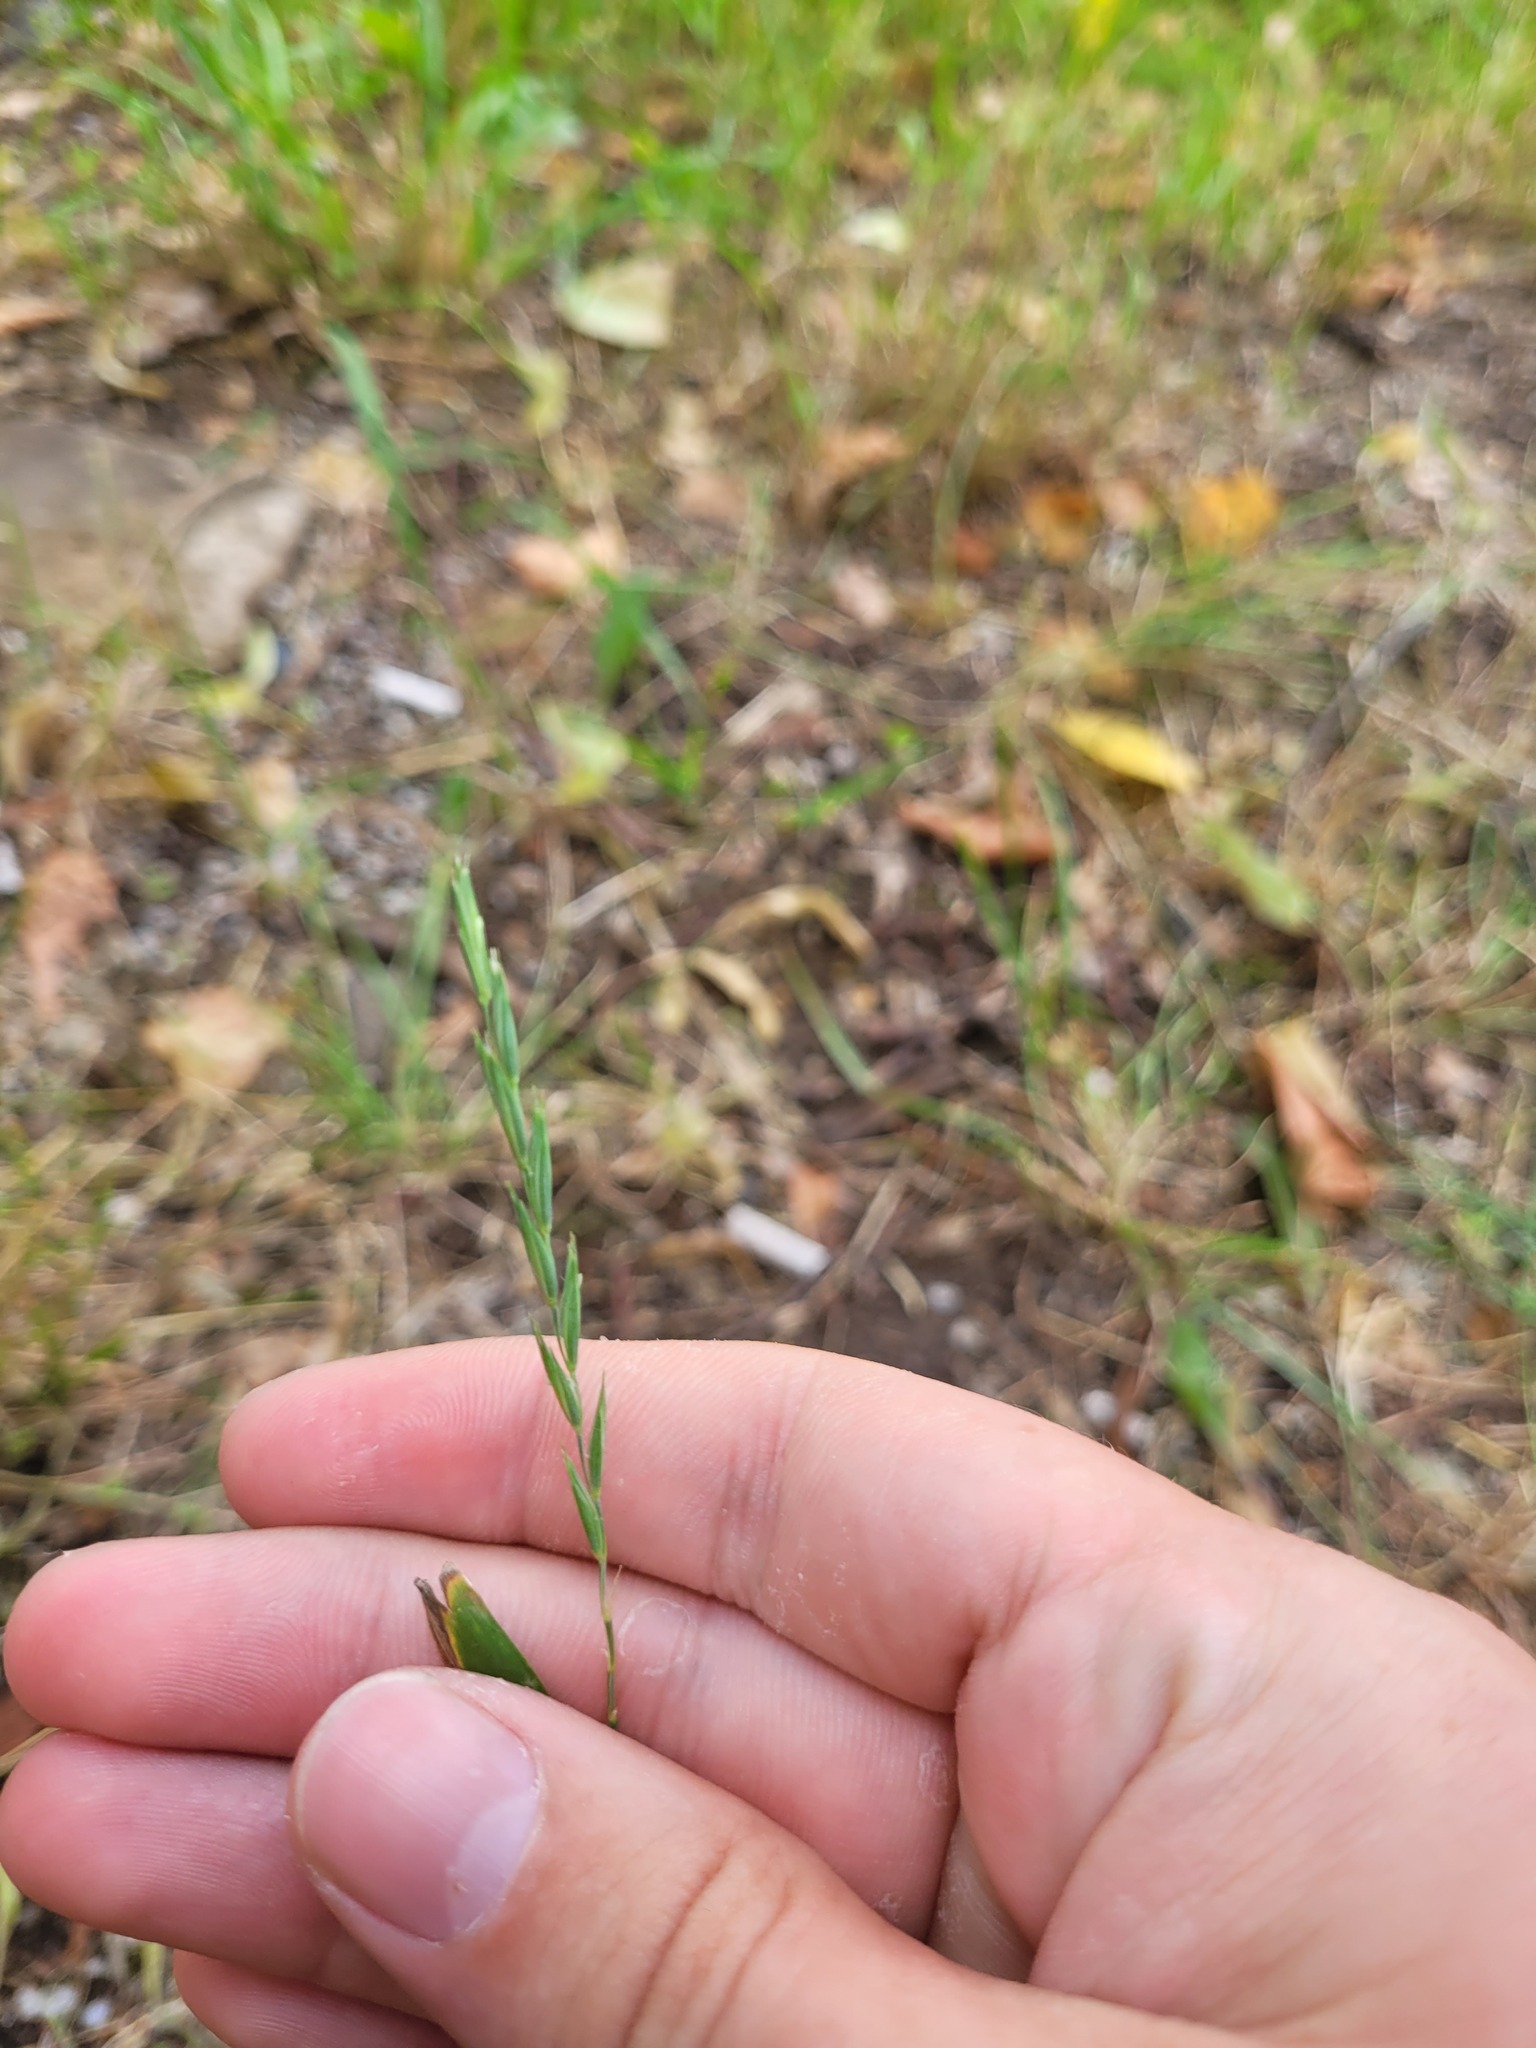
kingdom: Plantae
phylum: Tracheophyta
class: Liliopsida
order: Poales
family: Poaceae
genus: Elymus
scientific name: Elymus repens
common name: Quackgrass
